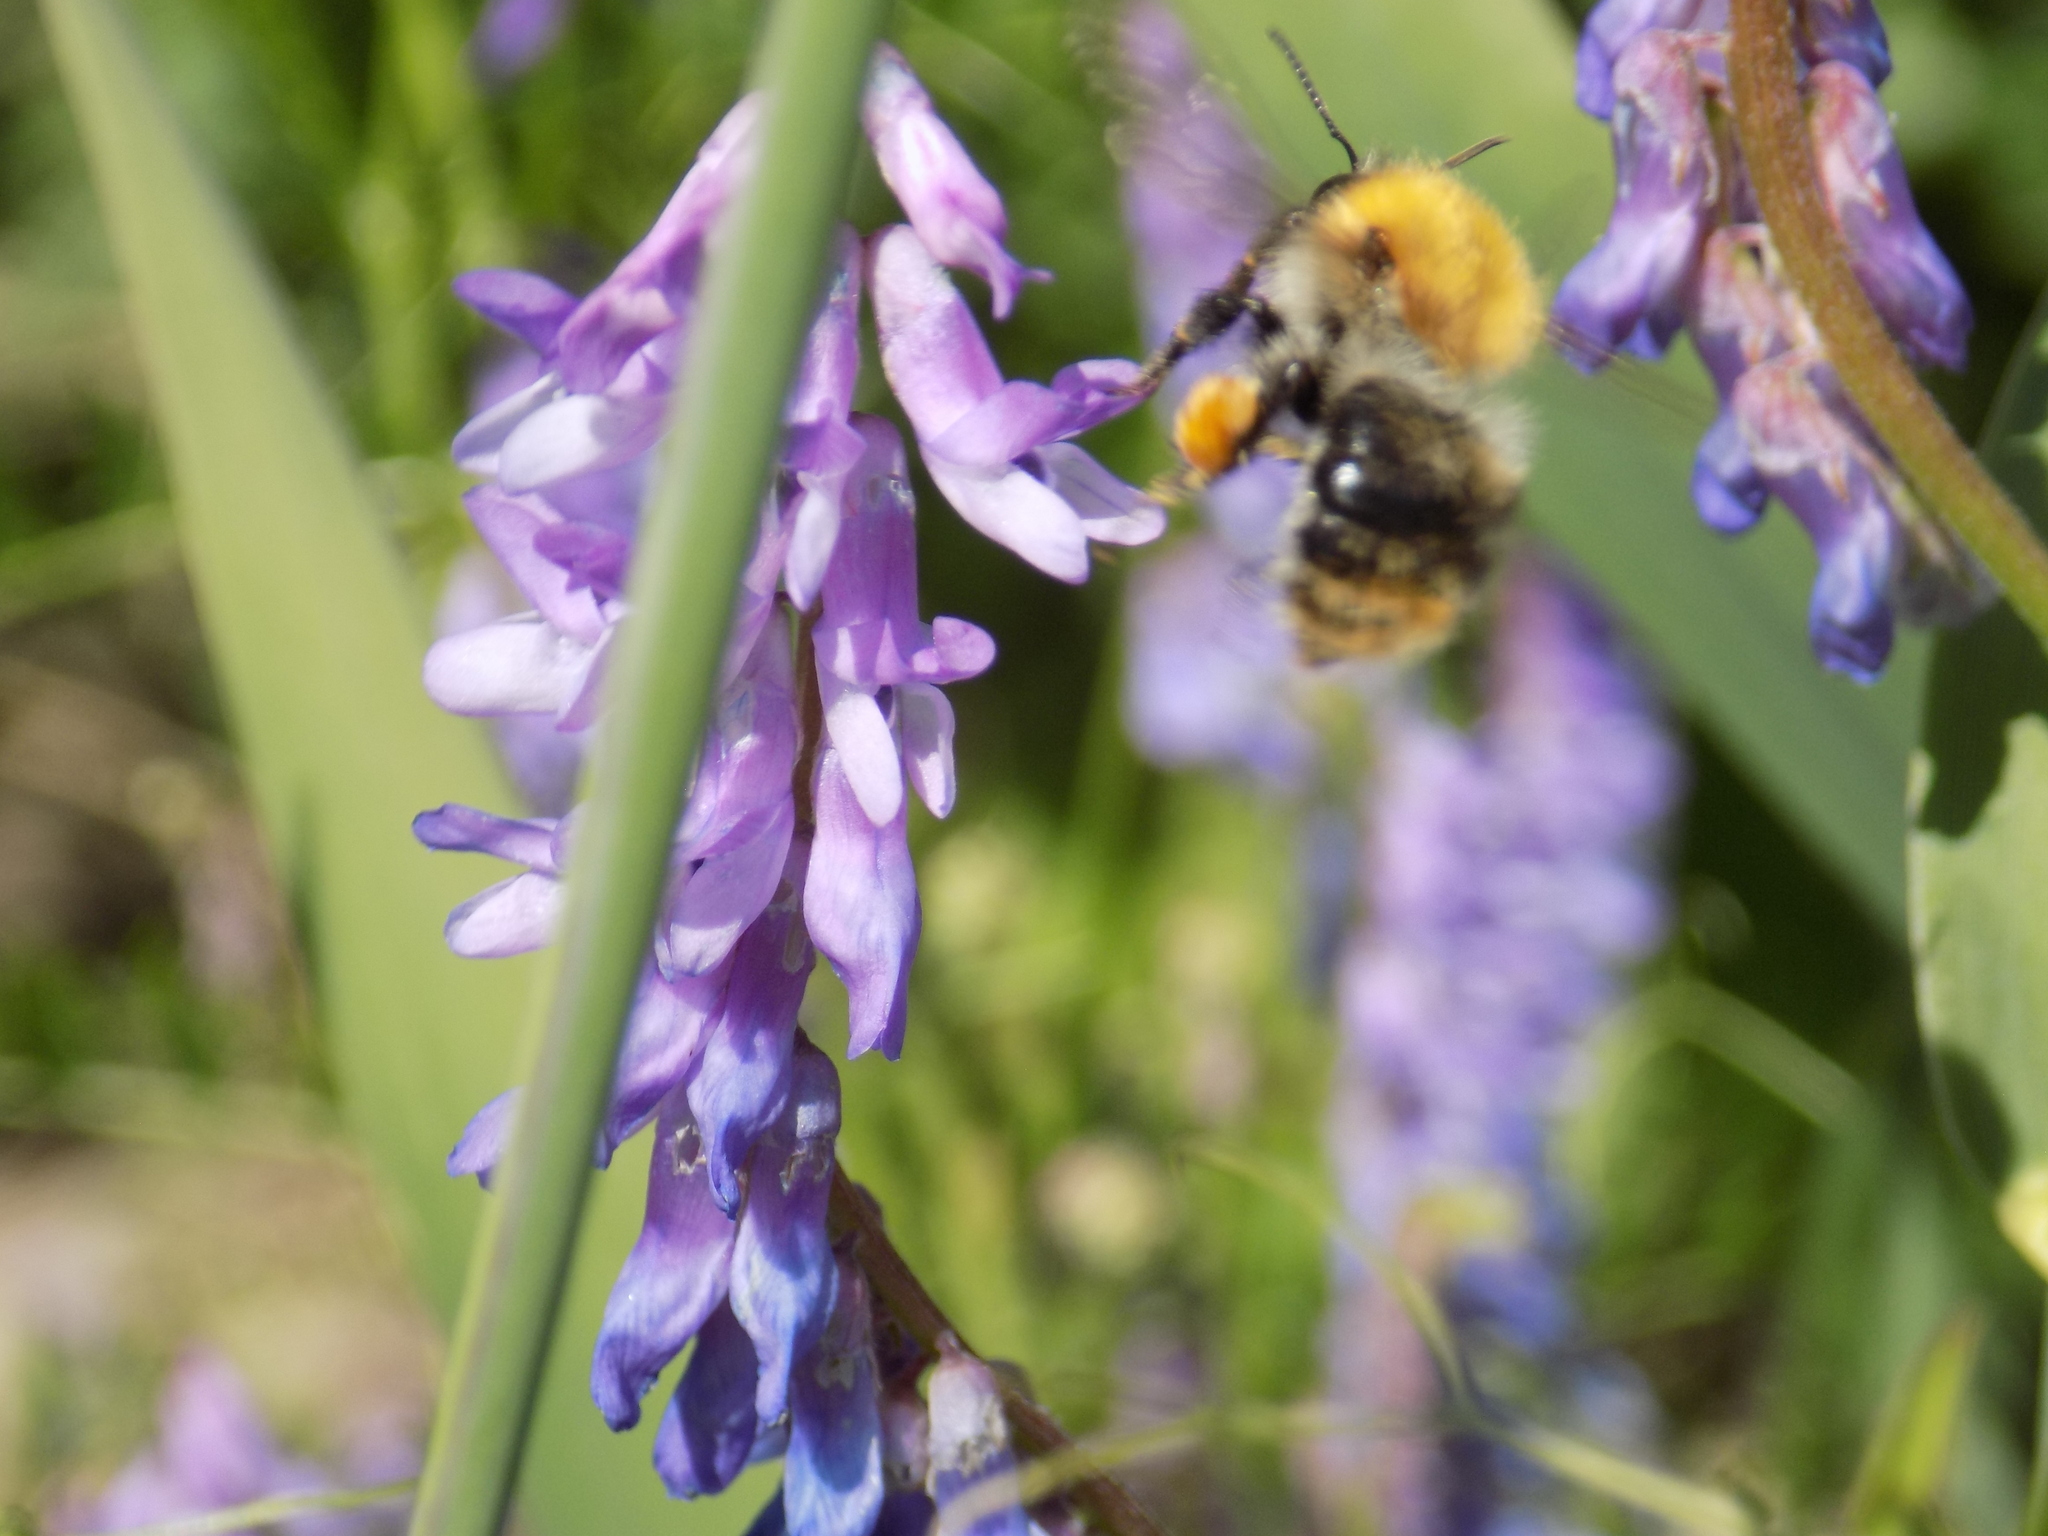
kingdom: Animalia
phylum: Arthropoda
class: Insecta
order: Hymenoptera
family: Apidae
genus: Bombus
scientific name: Bombus pascuorum
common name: Common carder bee
